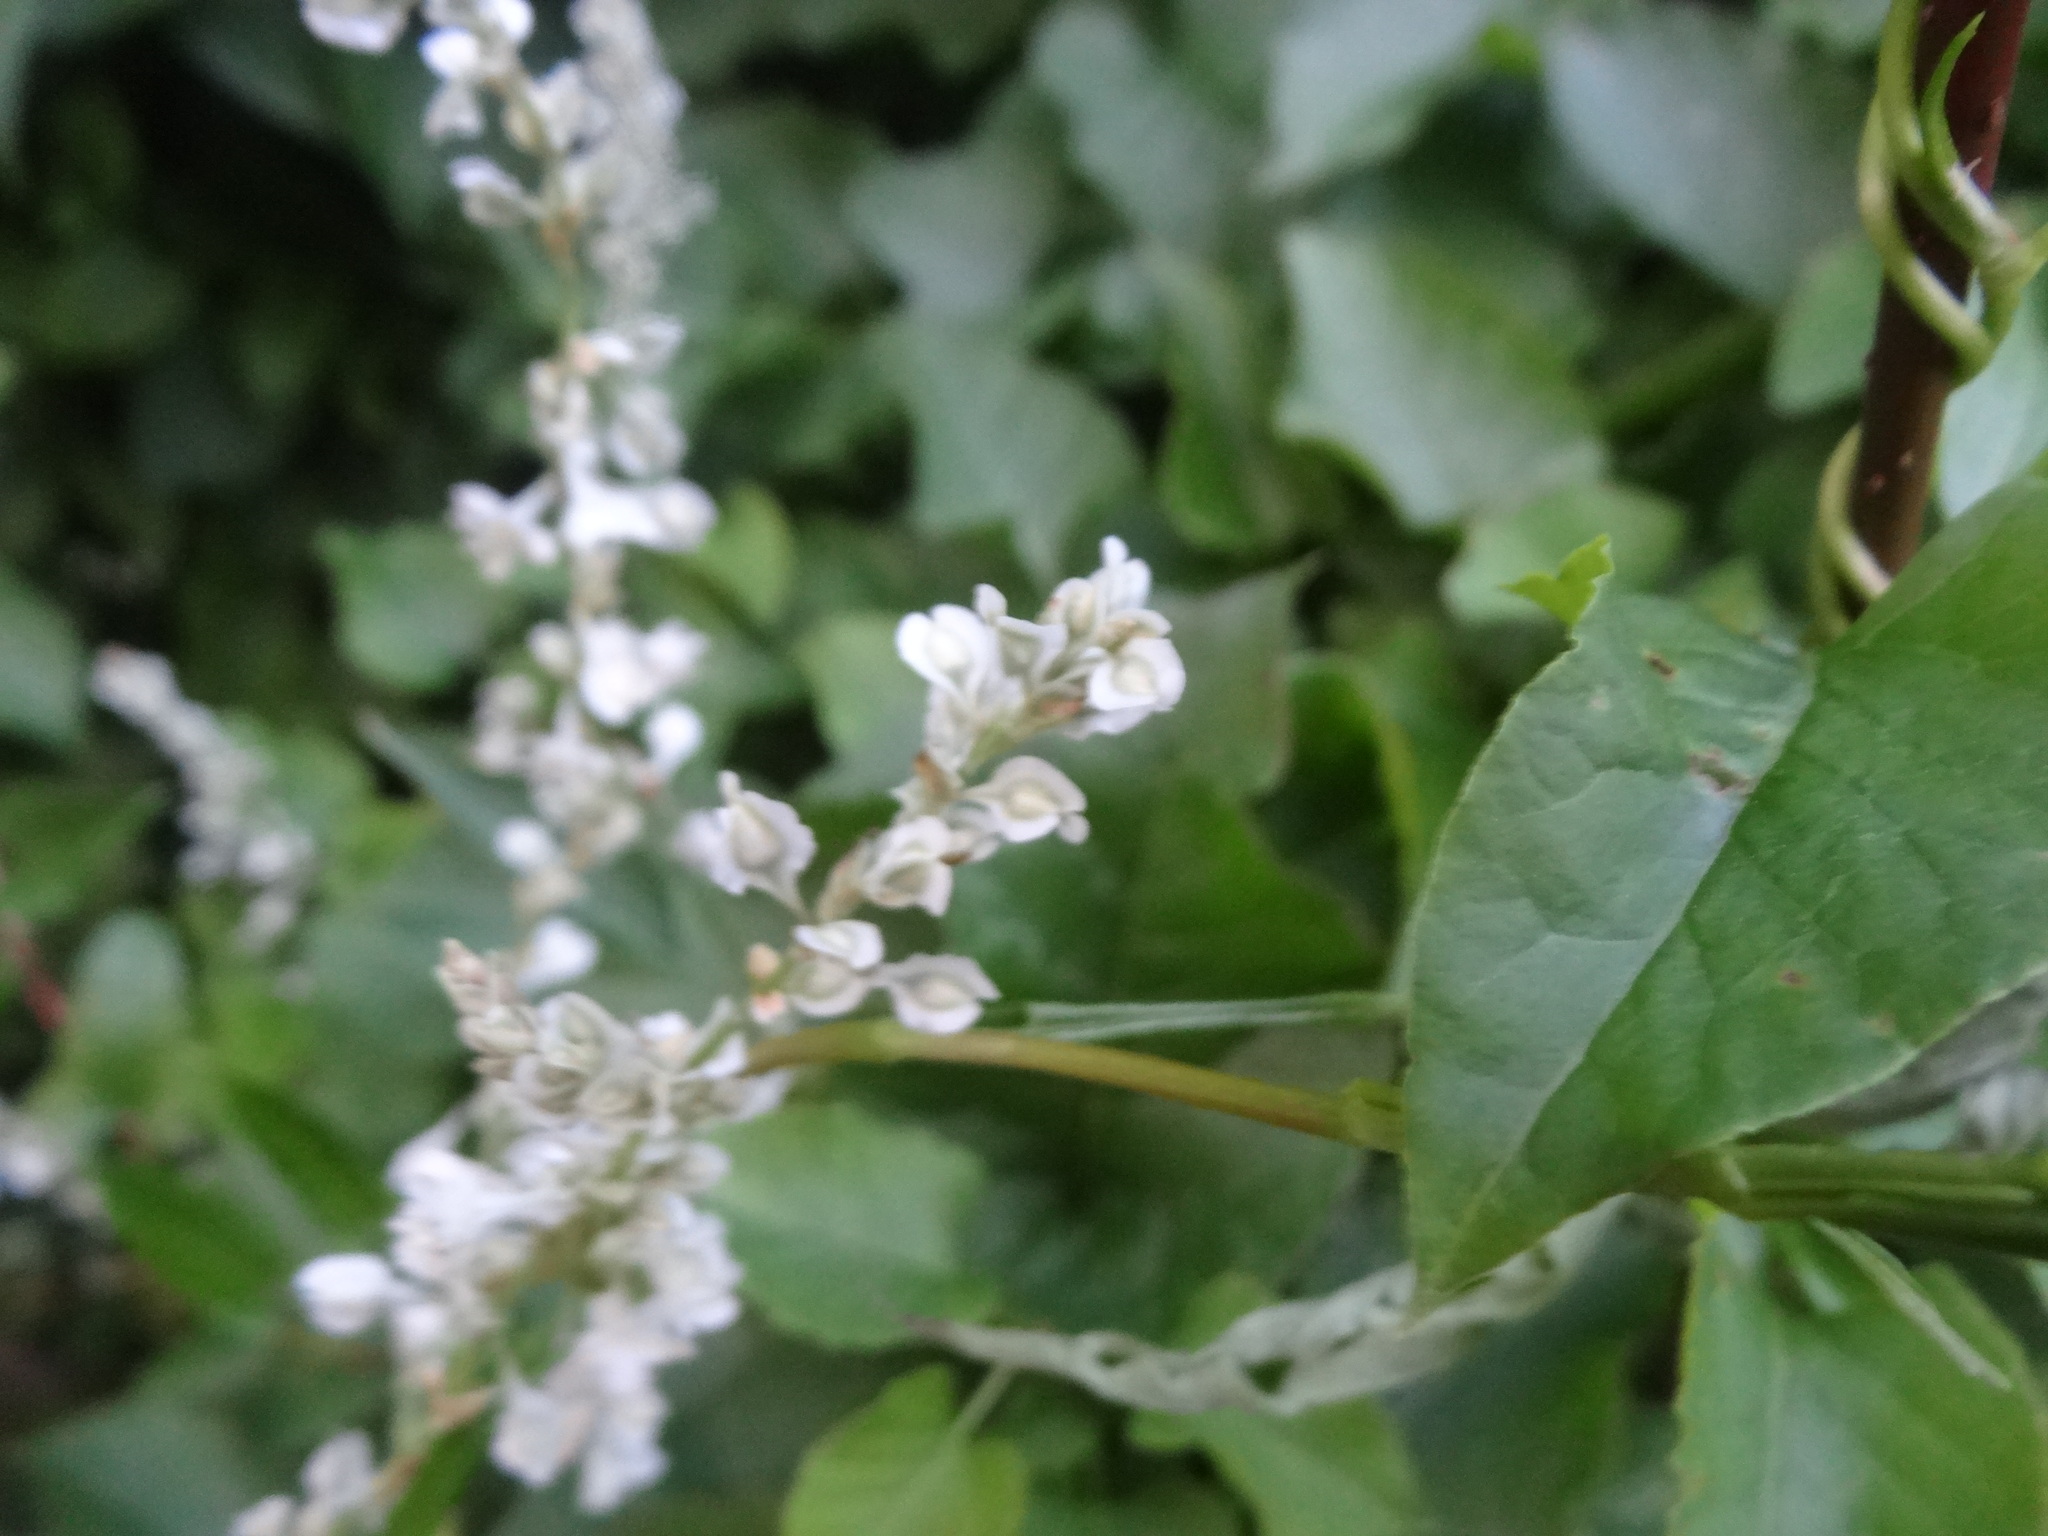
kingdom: Plantae
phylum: Tracheophyta
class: Magnoliopsida
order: Caryophyllales
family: Polygonaceae
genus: Fallopia
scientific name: Fallopia baldschuanica
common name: Russian-vine
